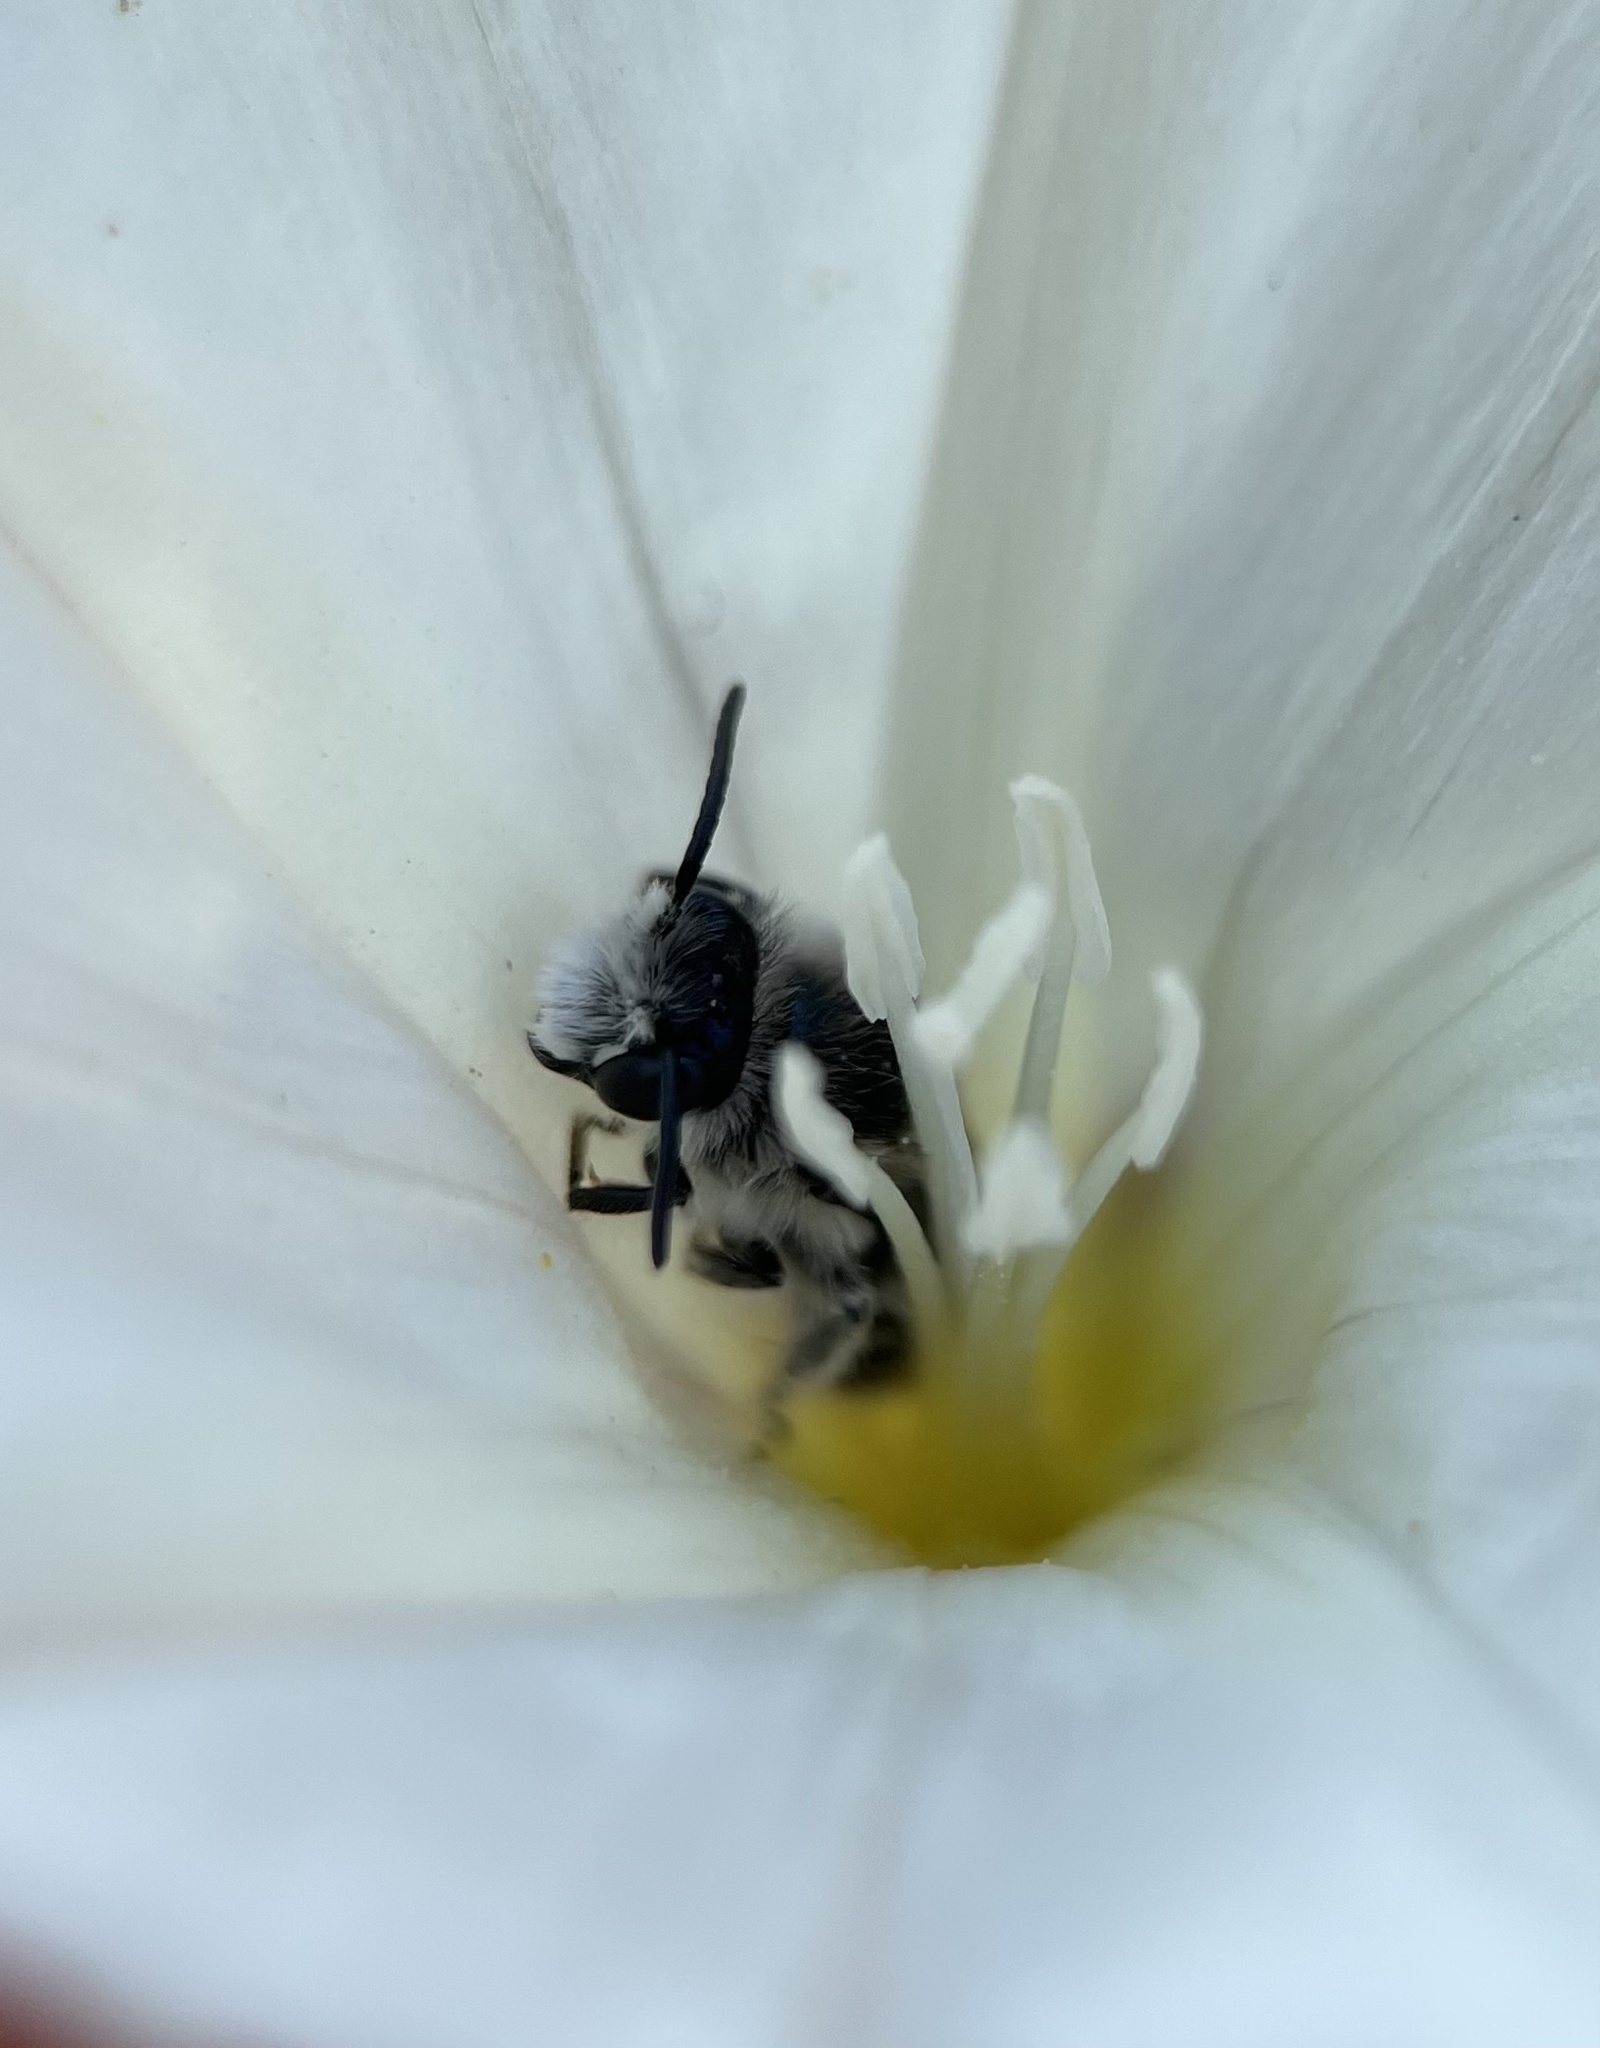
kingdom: Animalia
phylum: Arthropoda
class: Insecta
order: Hymenoptera
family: Andrenidae
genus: Ancylandrena
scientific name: Ancylandrena atoposoma
